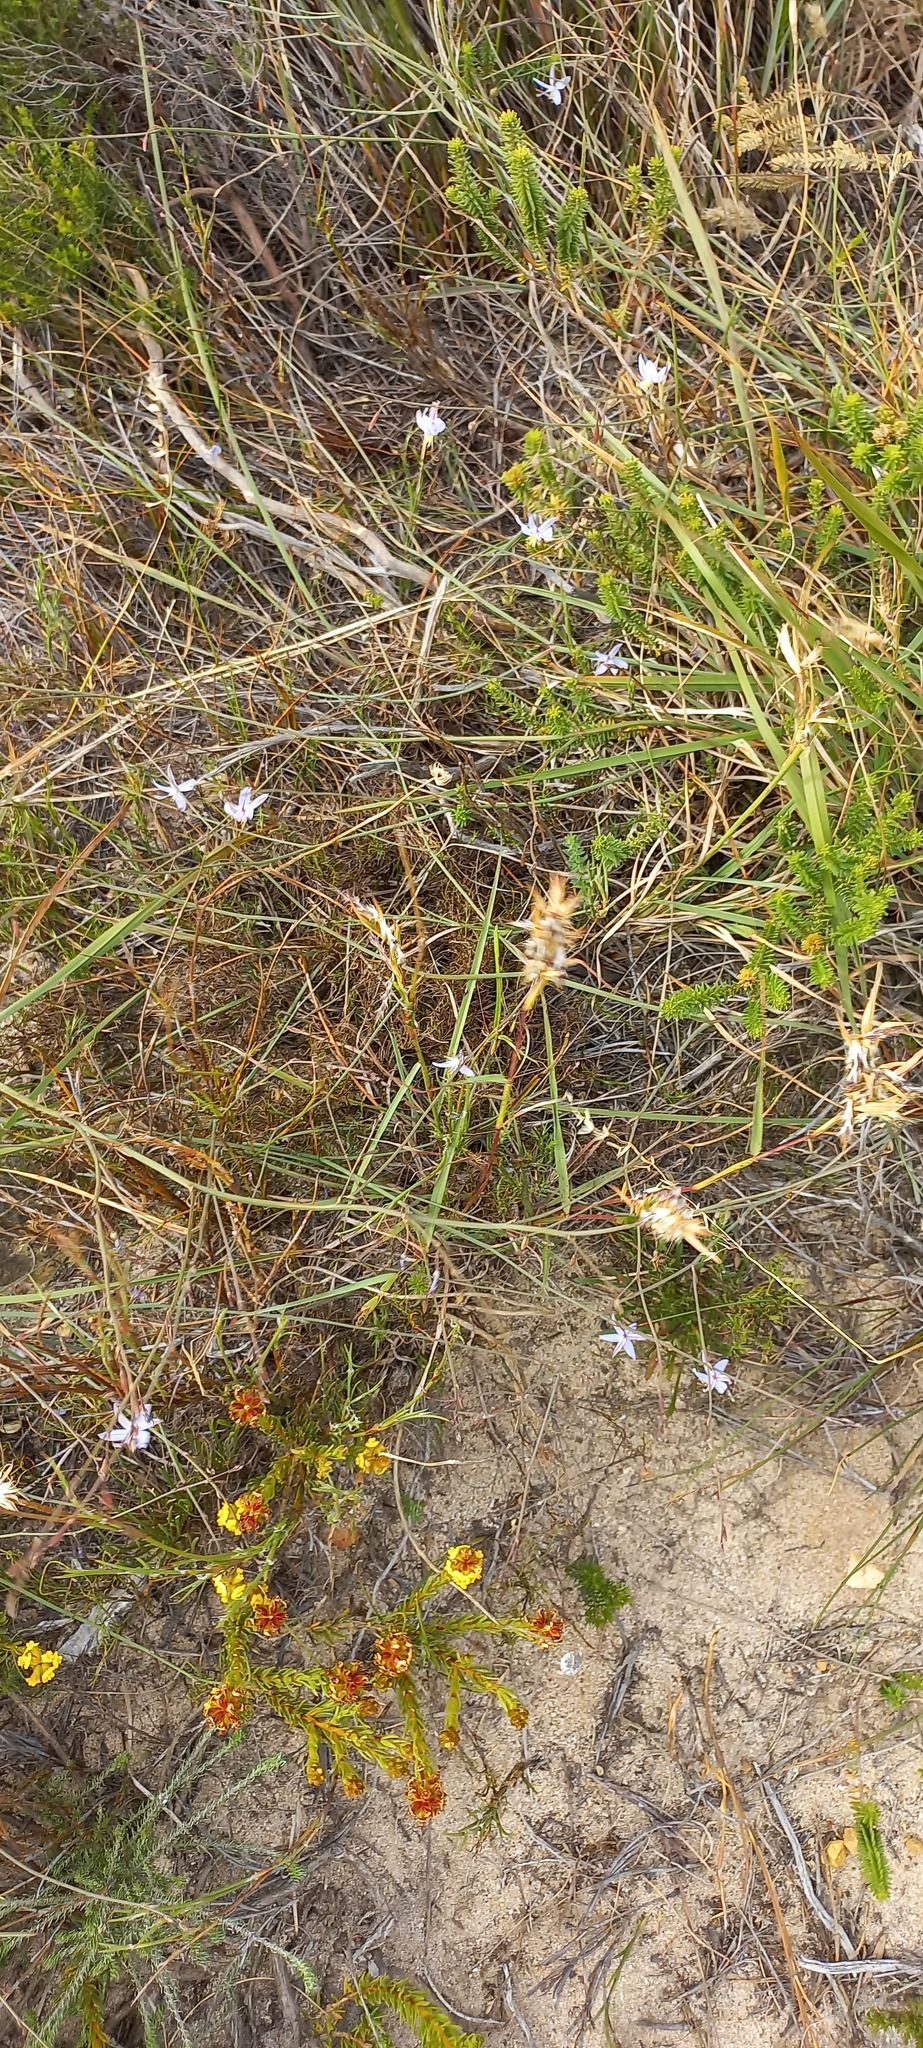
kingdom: Plantae
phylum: Tracheophyta
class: Liliopsida
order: Asparagales
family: Asphodelaceae
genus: Caesia
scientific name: Caesia contorta
